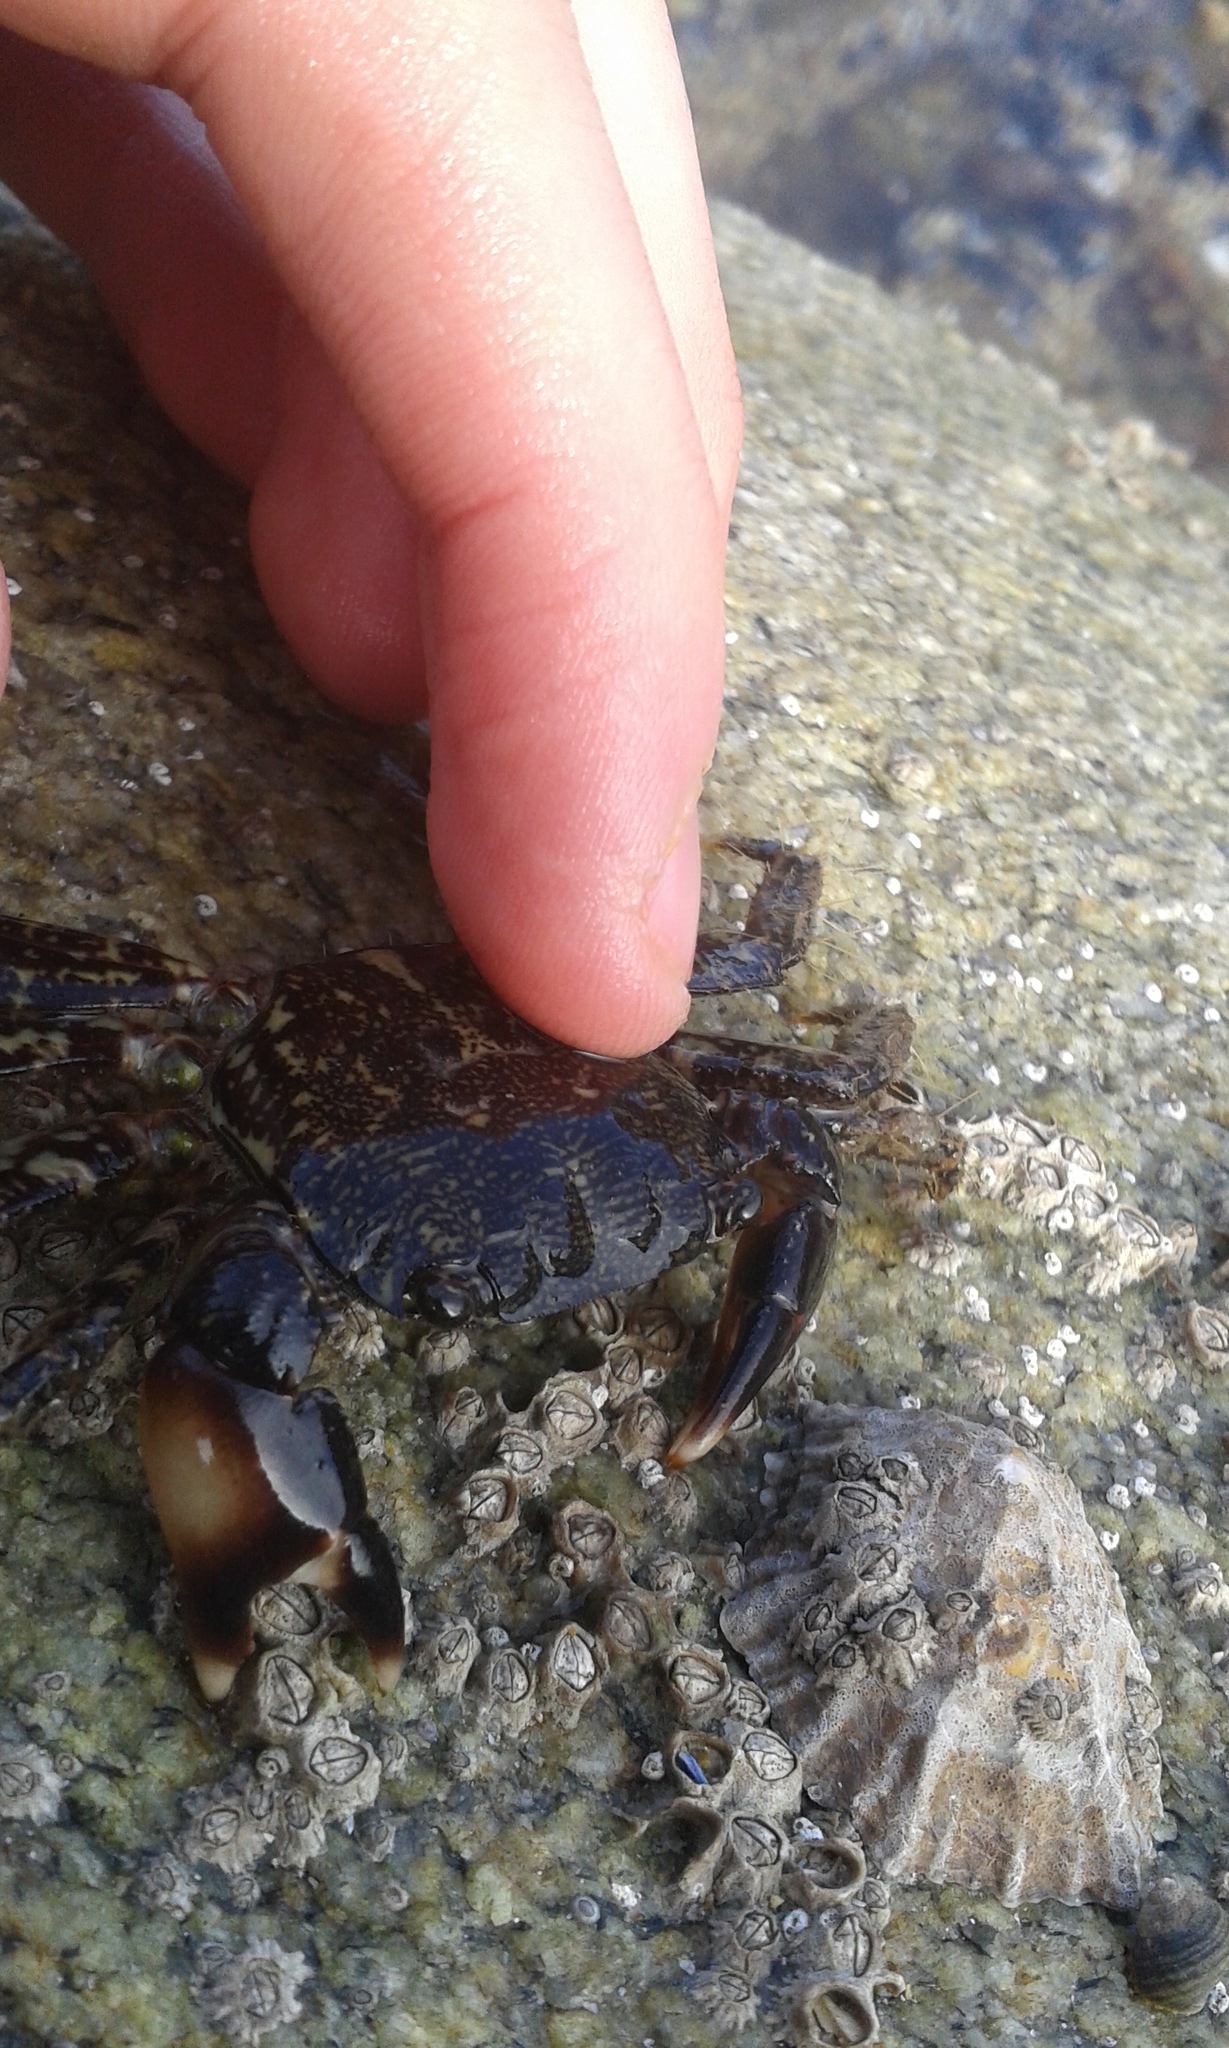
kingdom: Animalia
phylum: Arthropoda
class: Malacostraca
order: Decapoda
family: Grapsidae
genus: Pachygrapsus
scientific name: Pachygrapsus marmoratus
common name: Marbled rock crab
